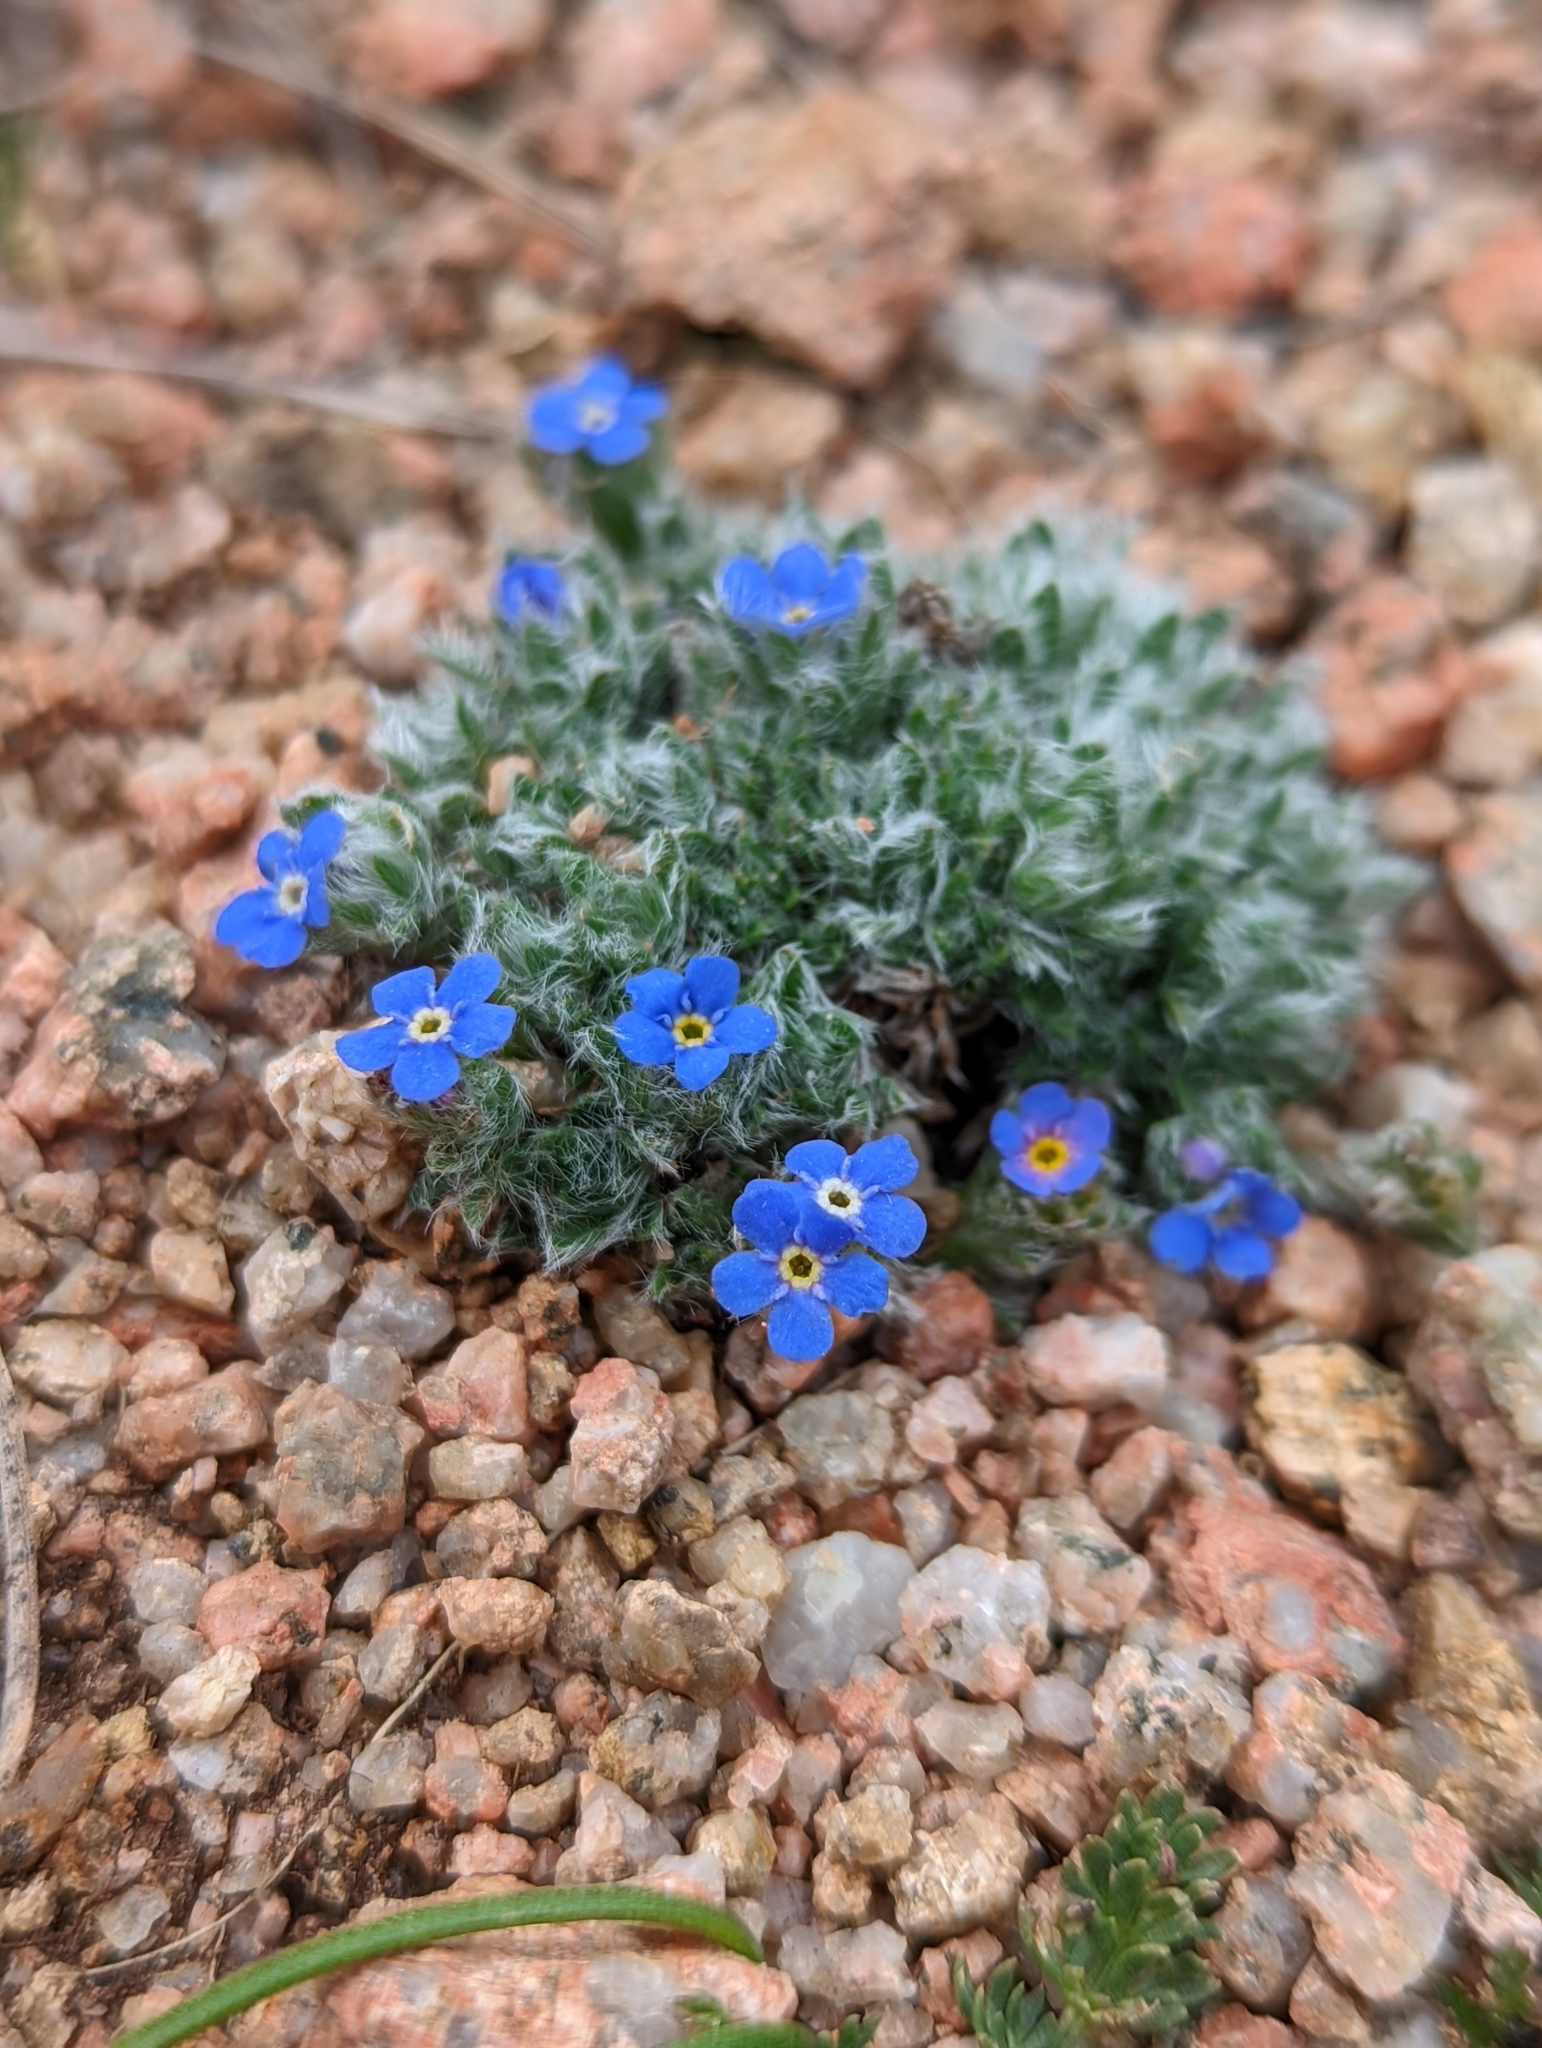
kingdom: Plantae
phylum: Tracheophyta
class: Magnoliopsida
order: Boraginales
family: Boraginaceae
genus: Eritrichium
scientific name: Eritrichium argenteum
